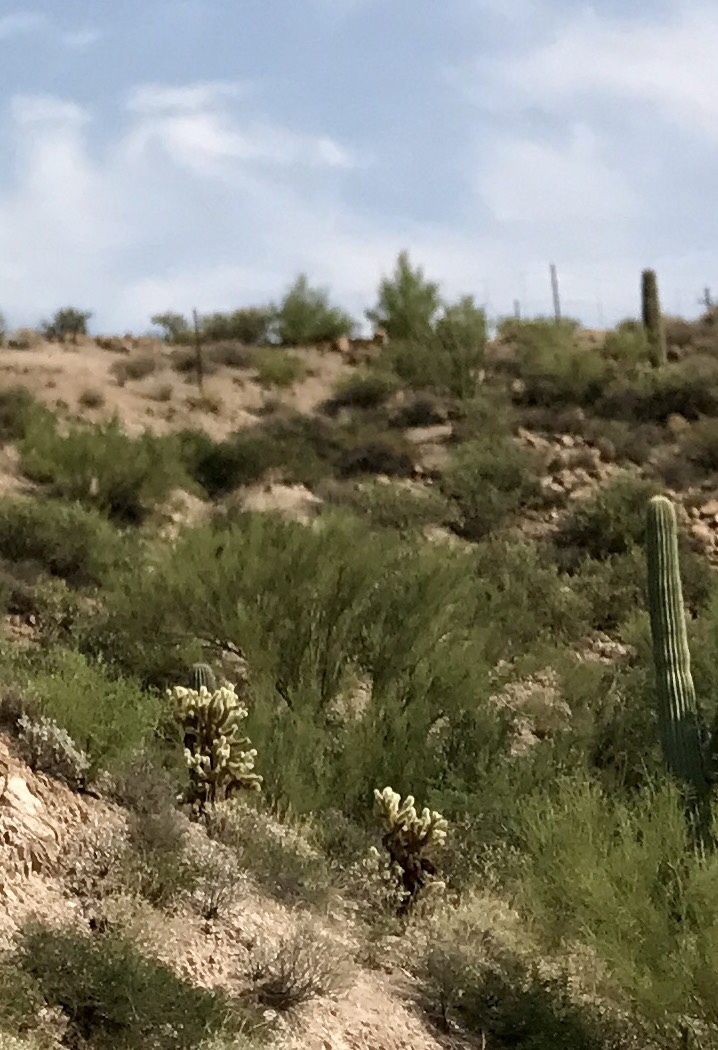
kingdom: Plantae
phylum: Tracheophyta
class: Magnoliopsida
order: Caryophyllales
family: Cactaceae
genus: Cylindropuntia
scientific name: Cylindropuntia fosbergii
